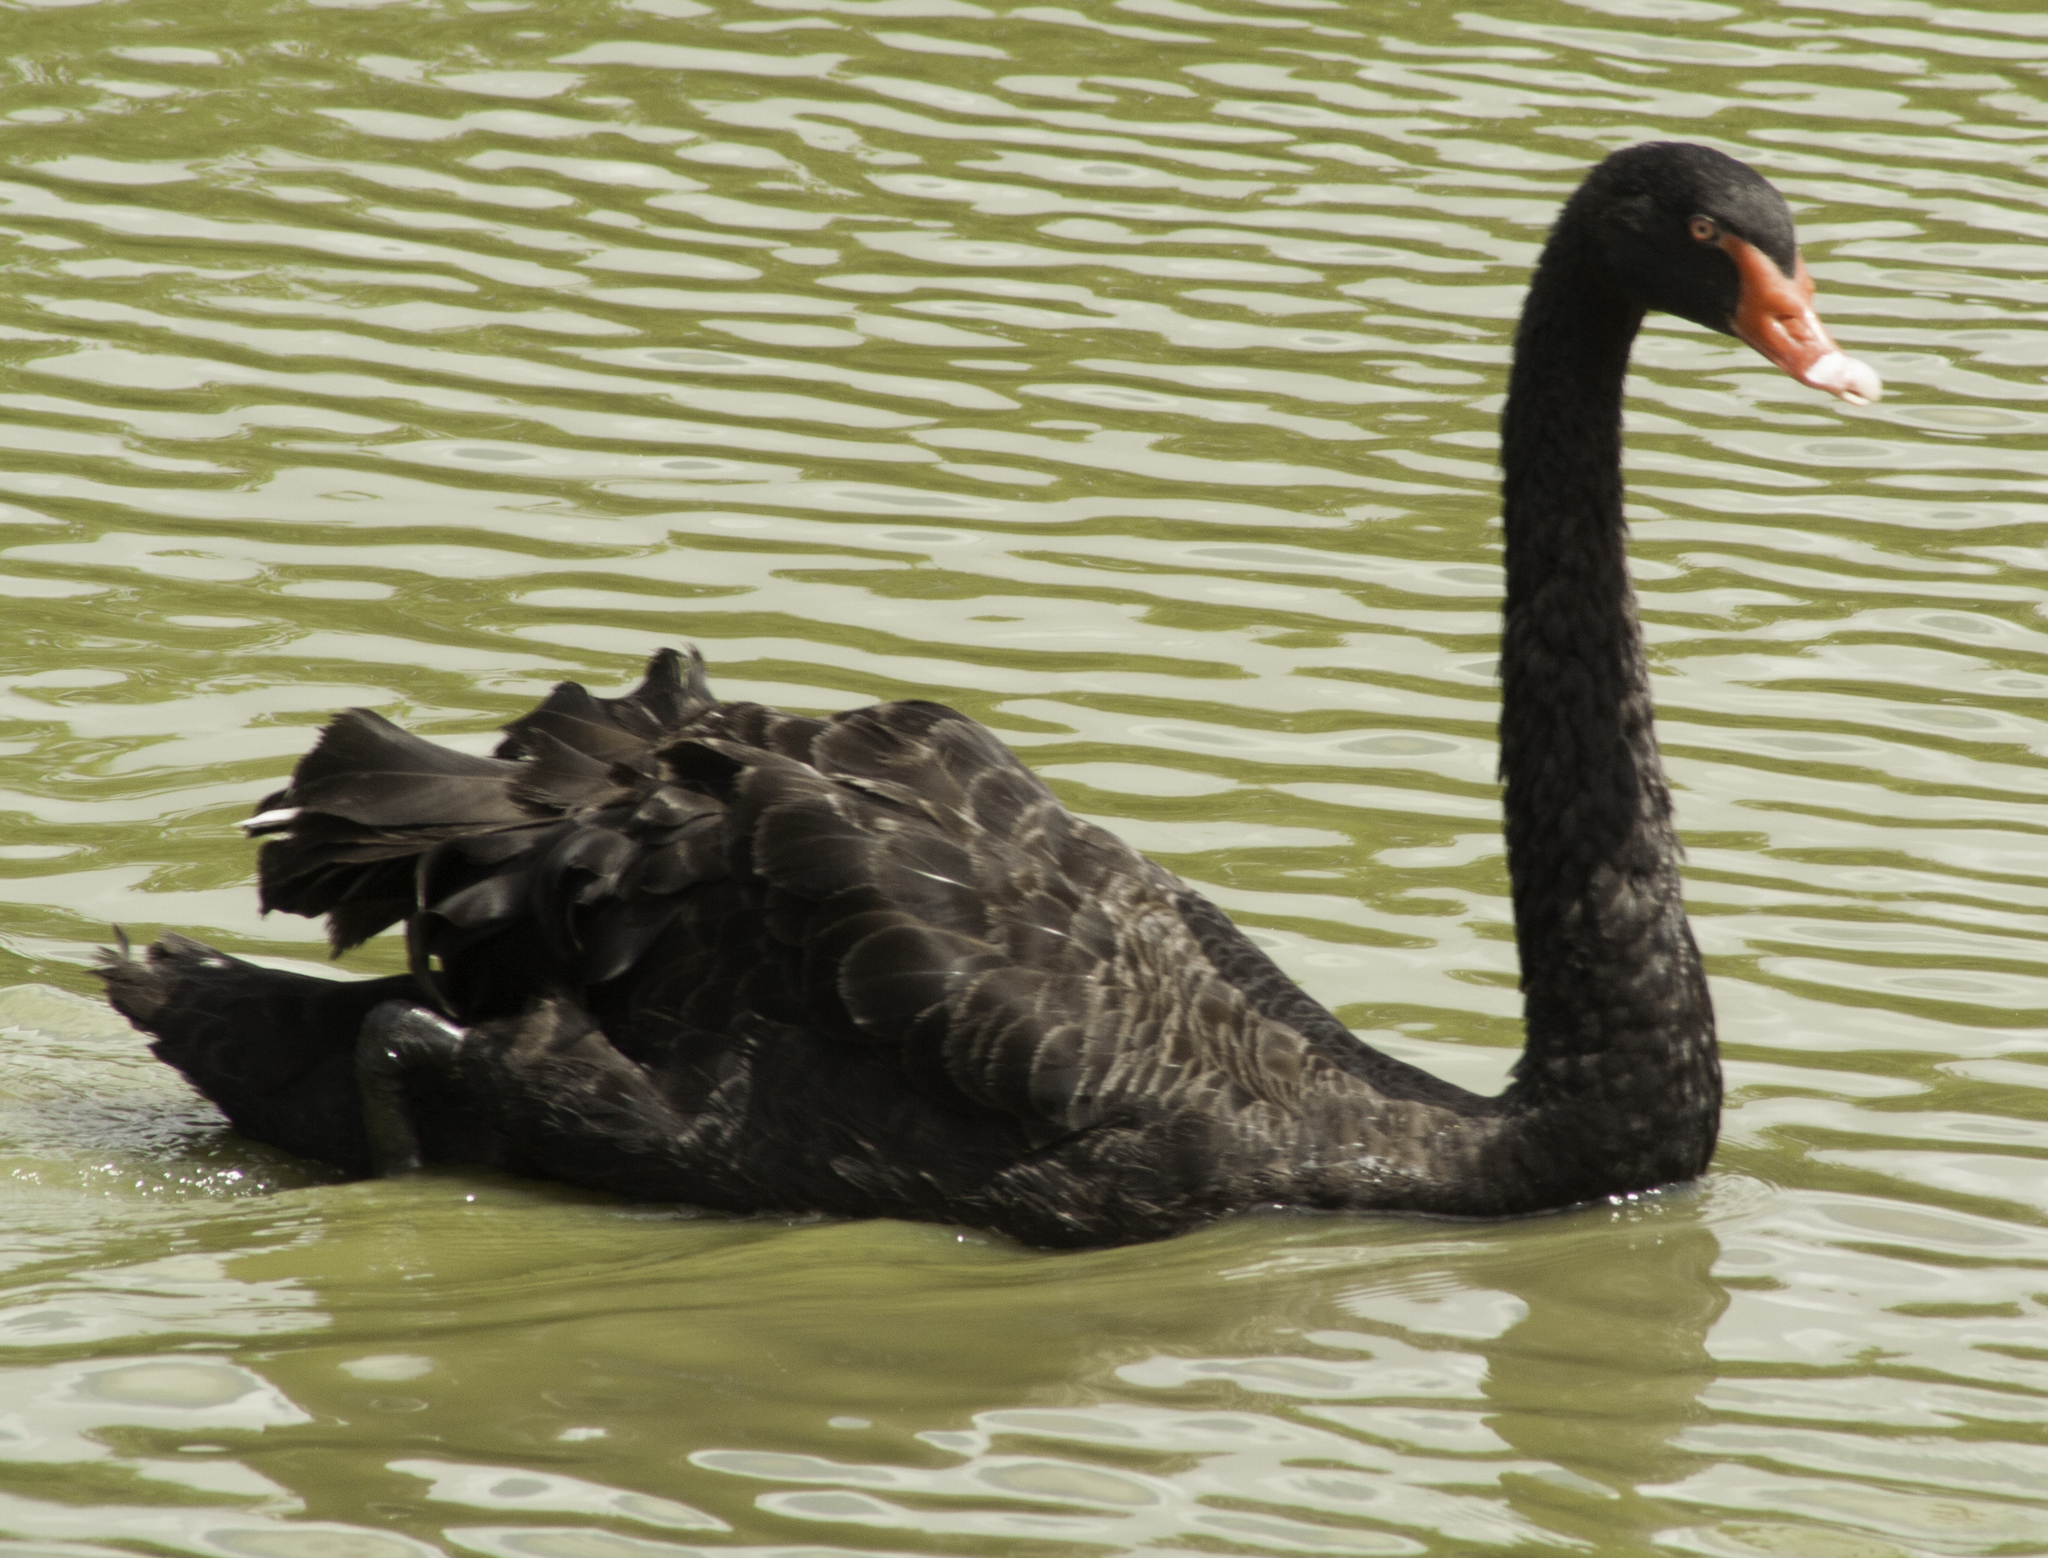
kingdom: Animalia
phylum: Chordata
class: Aves
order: Anseriformes
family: Anatidae
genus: Cygnus
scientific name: Cygnus atratus
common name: Black swan
